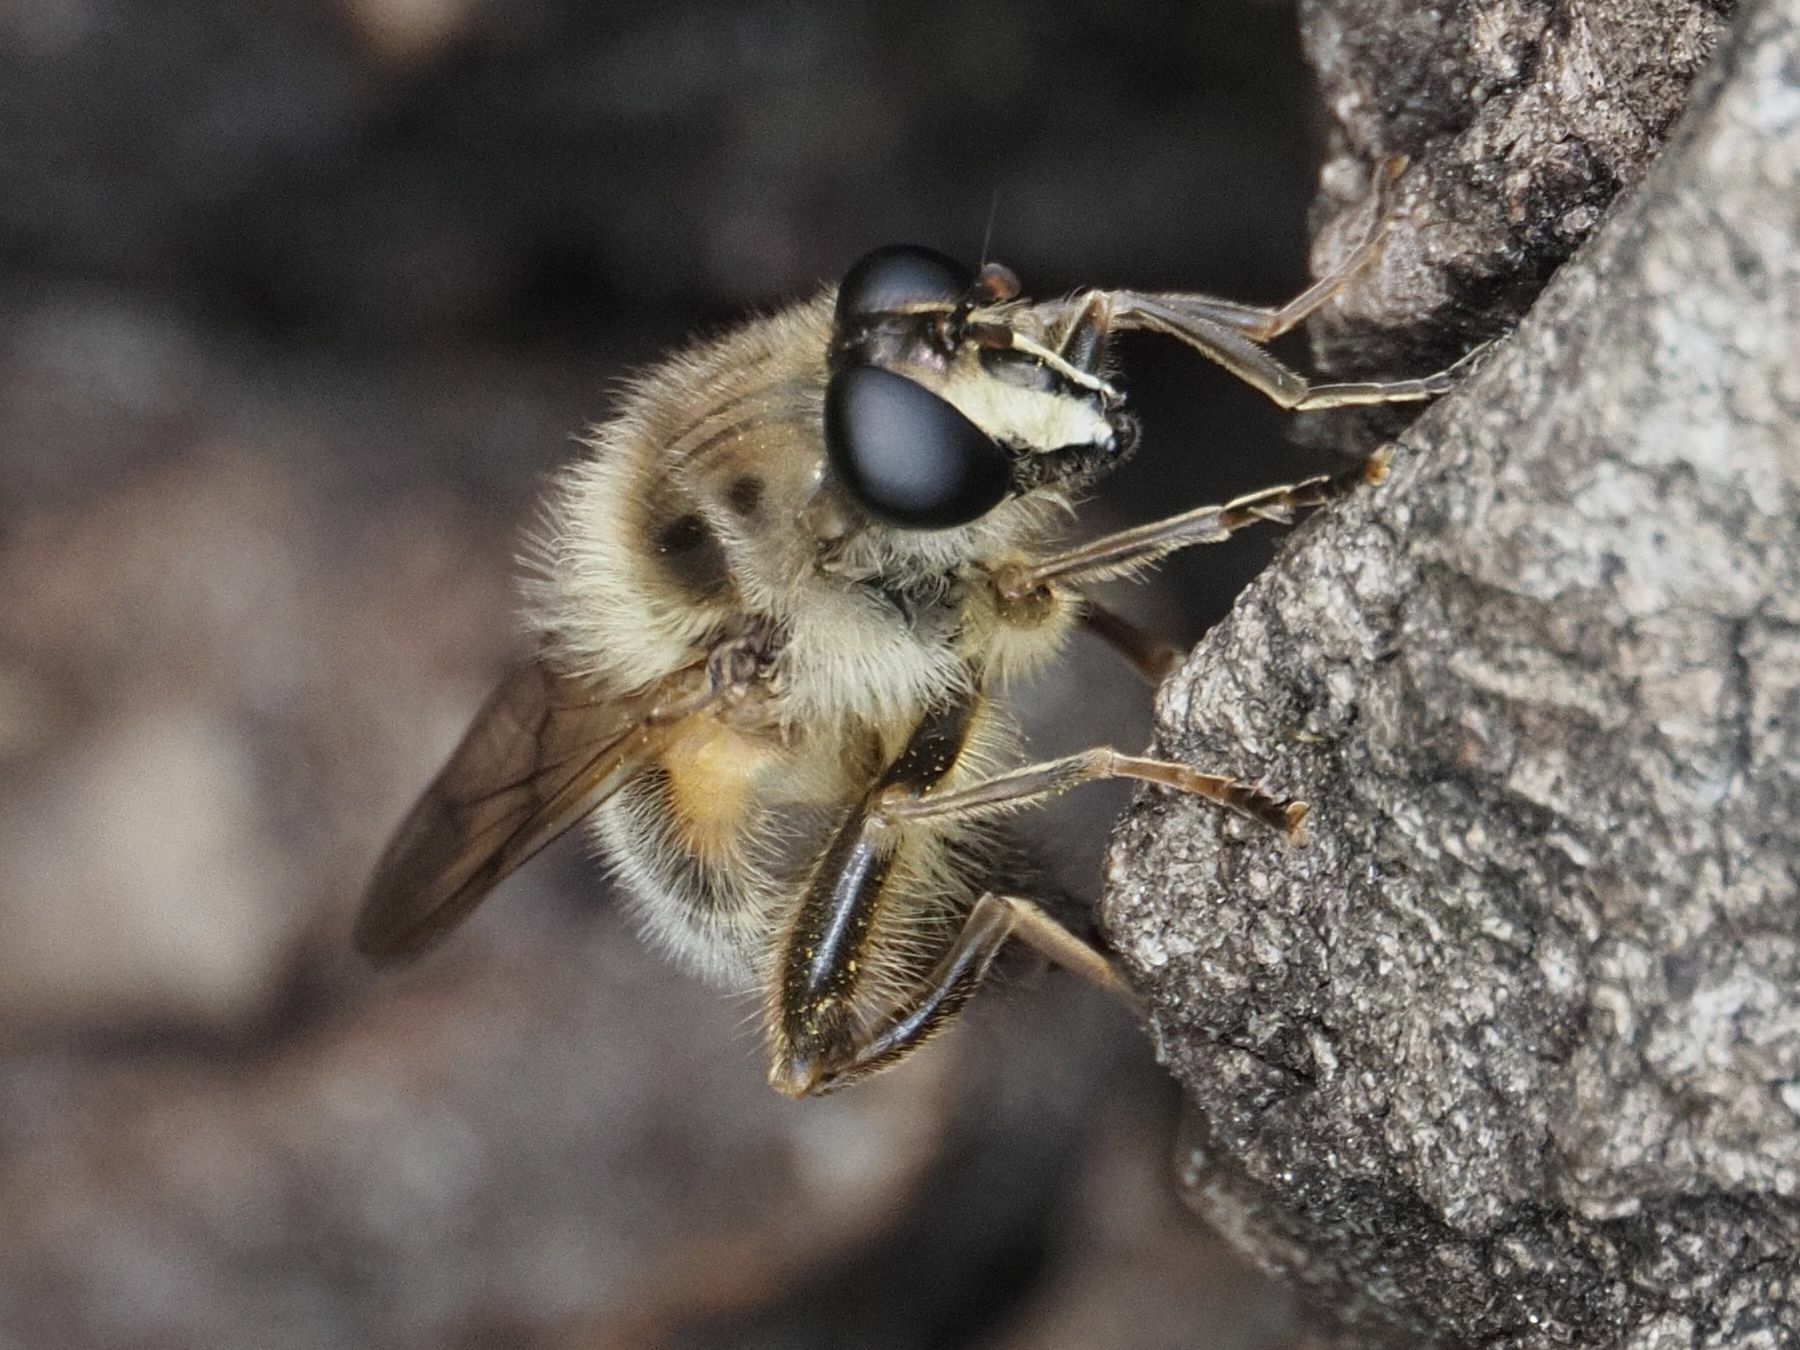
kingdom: Animalia
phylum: Arthropoda
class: Insecta
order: Diptera
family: Syrphidae
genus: Criorhina
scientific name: Criorhina pachymera
